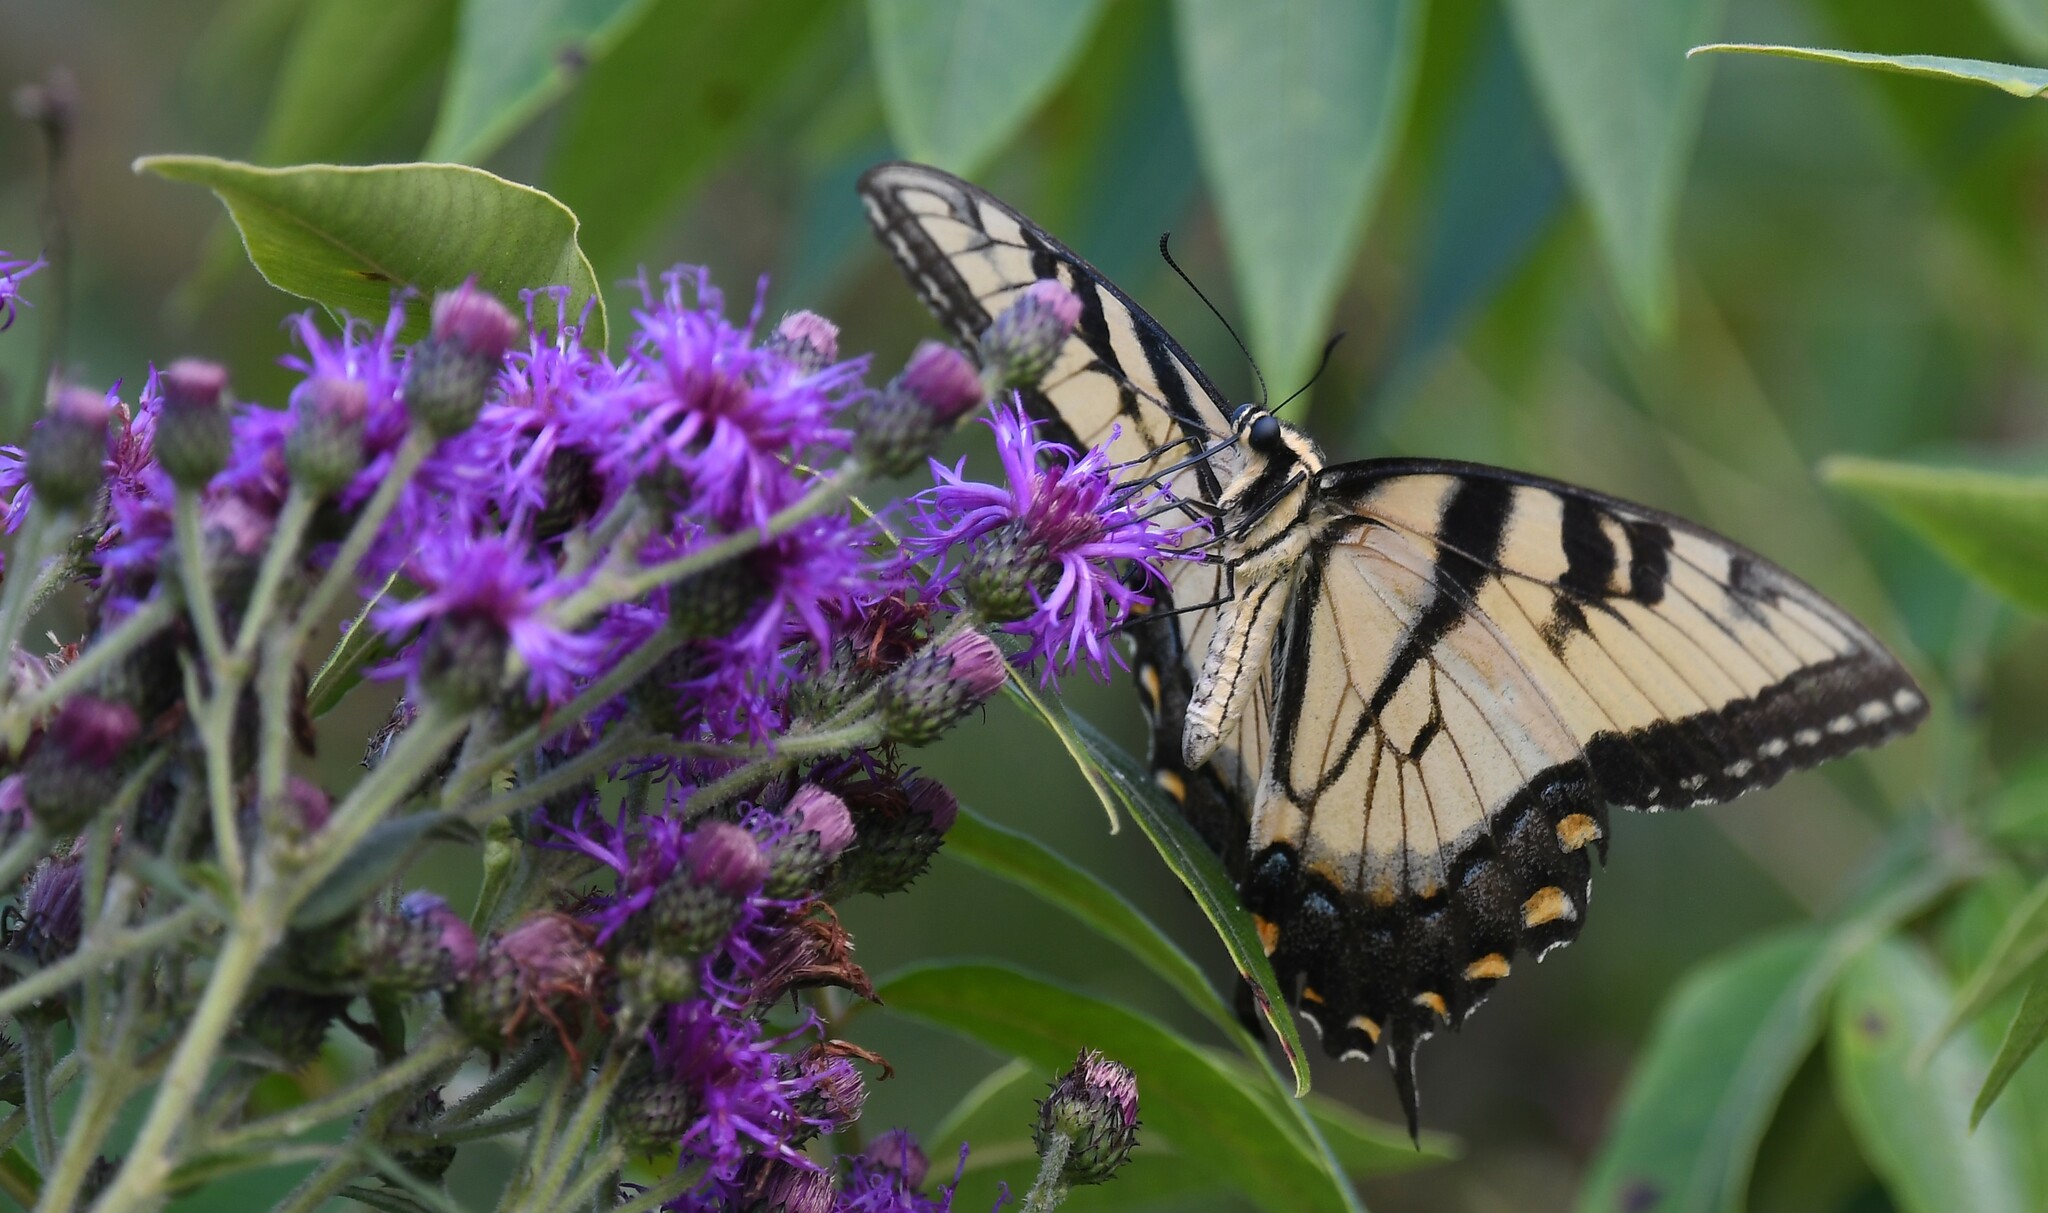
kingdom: Animalia
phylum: Arthropoda
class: Insecta
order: Lepidoptera
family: Papilionidae
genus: Papilio
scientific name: Papilio glaucus
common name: Tiger swallowtail
